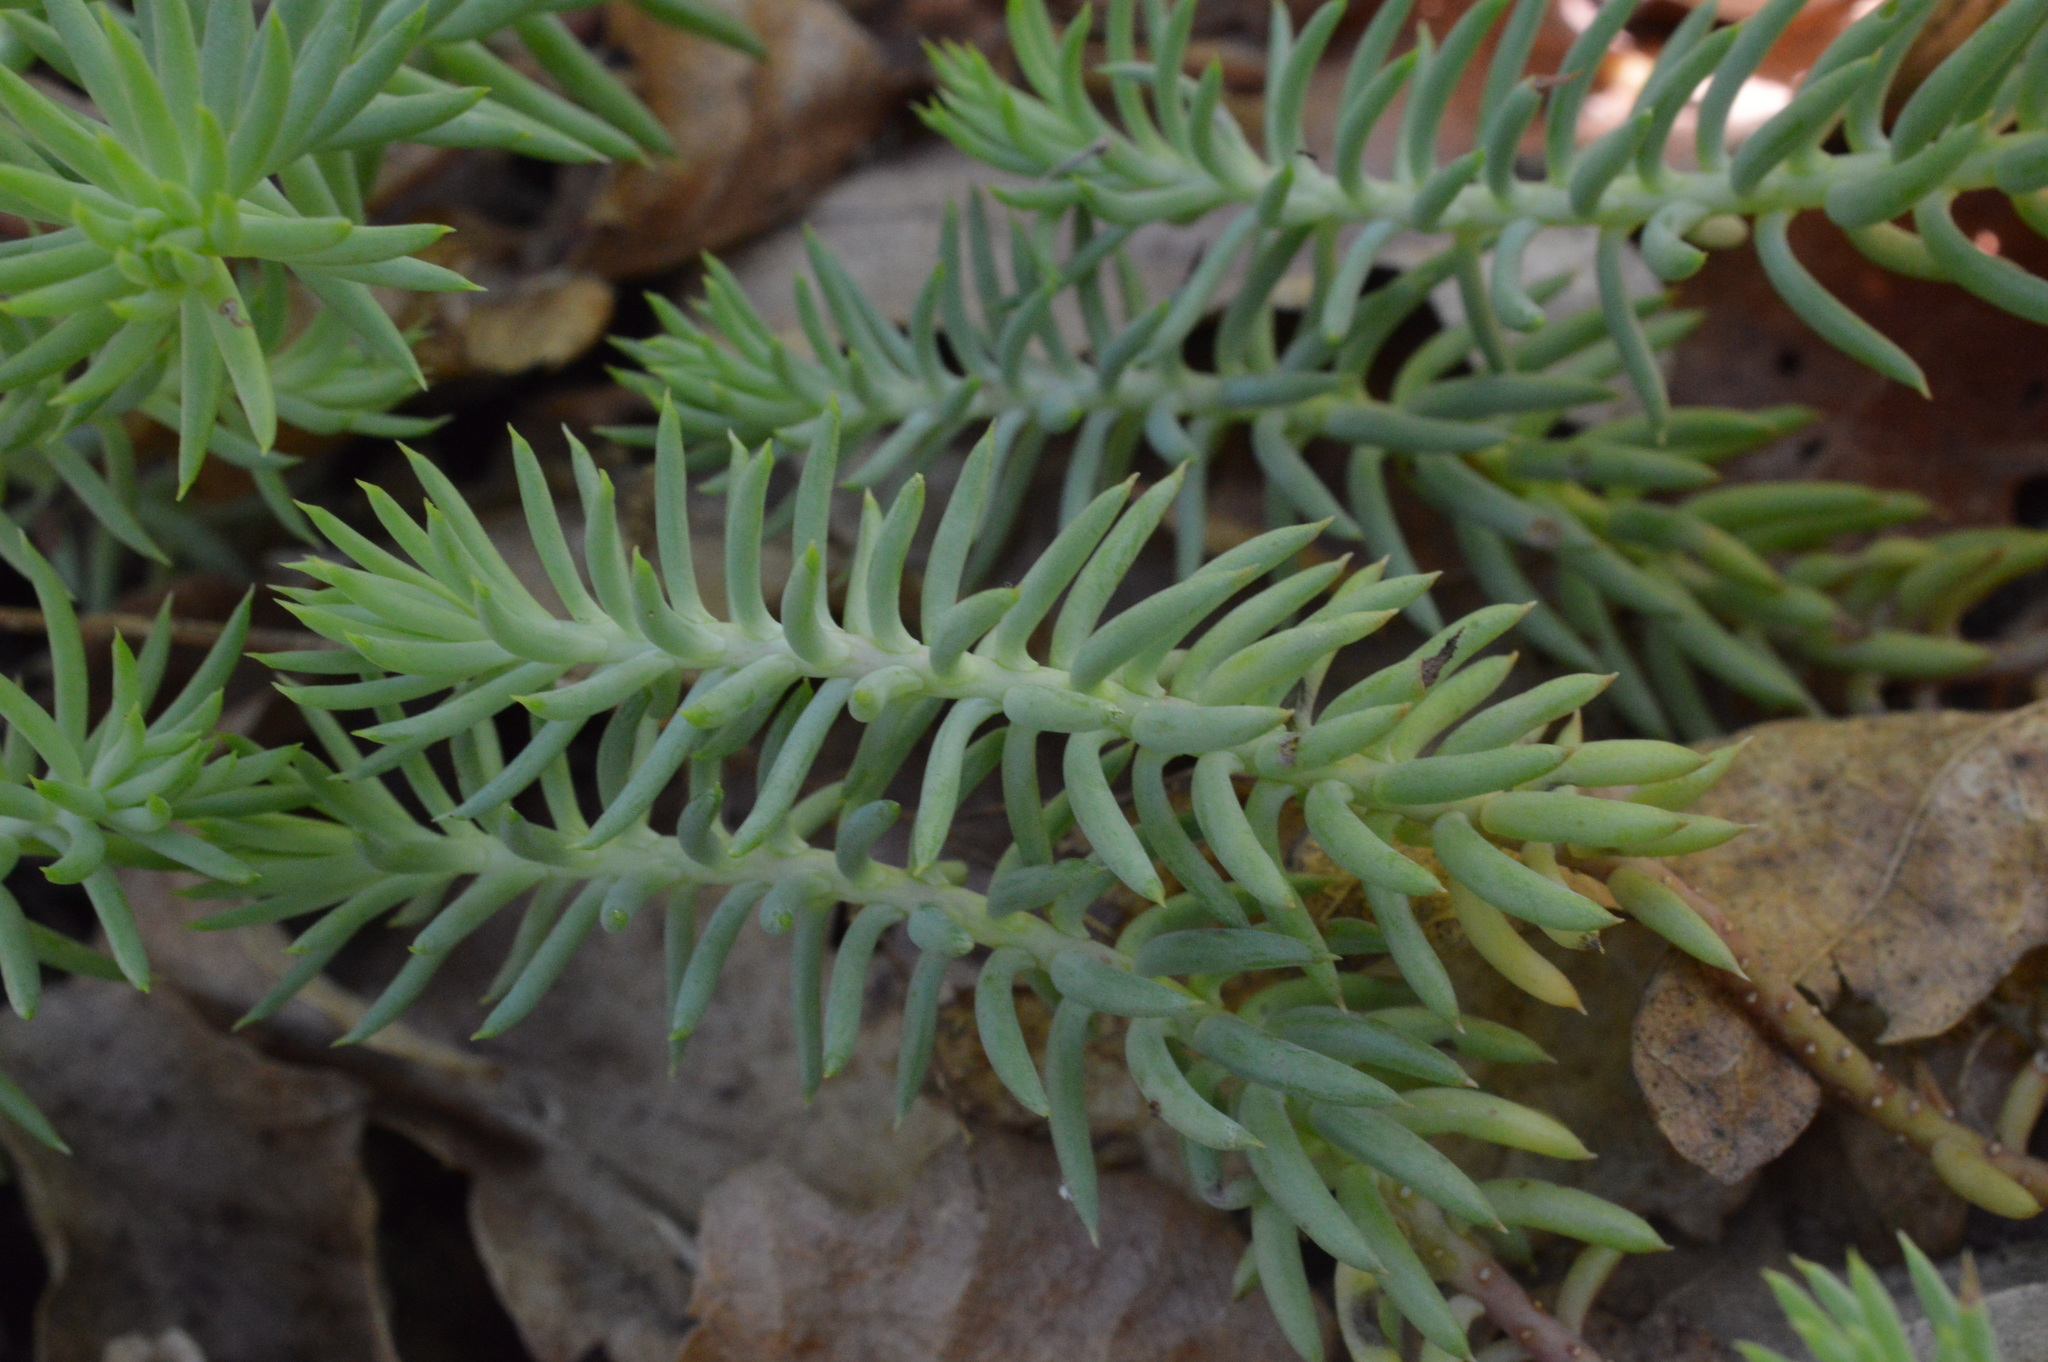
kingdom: Plantae
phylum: Tracheophyta
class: Magnoliopsida
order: Saxifragales
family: Crassulaceae
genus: Petrosedum
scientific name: Petrosedum rupestre
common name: Jenny's stonecrop
